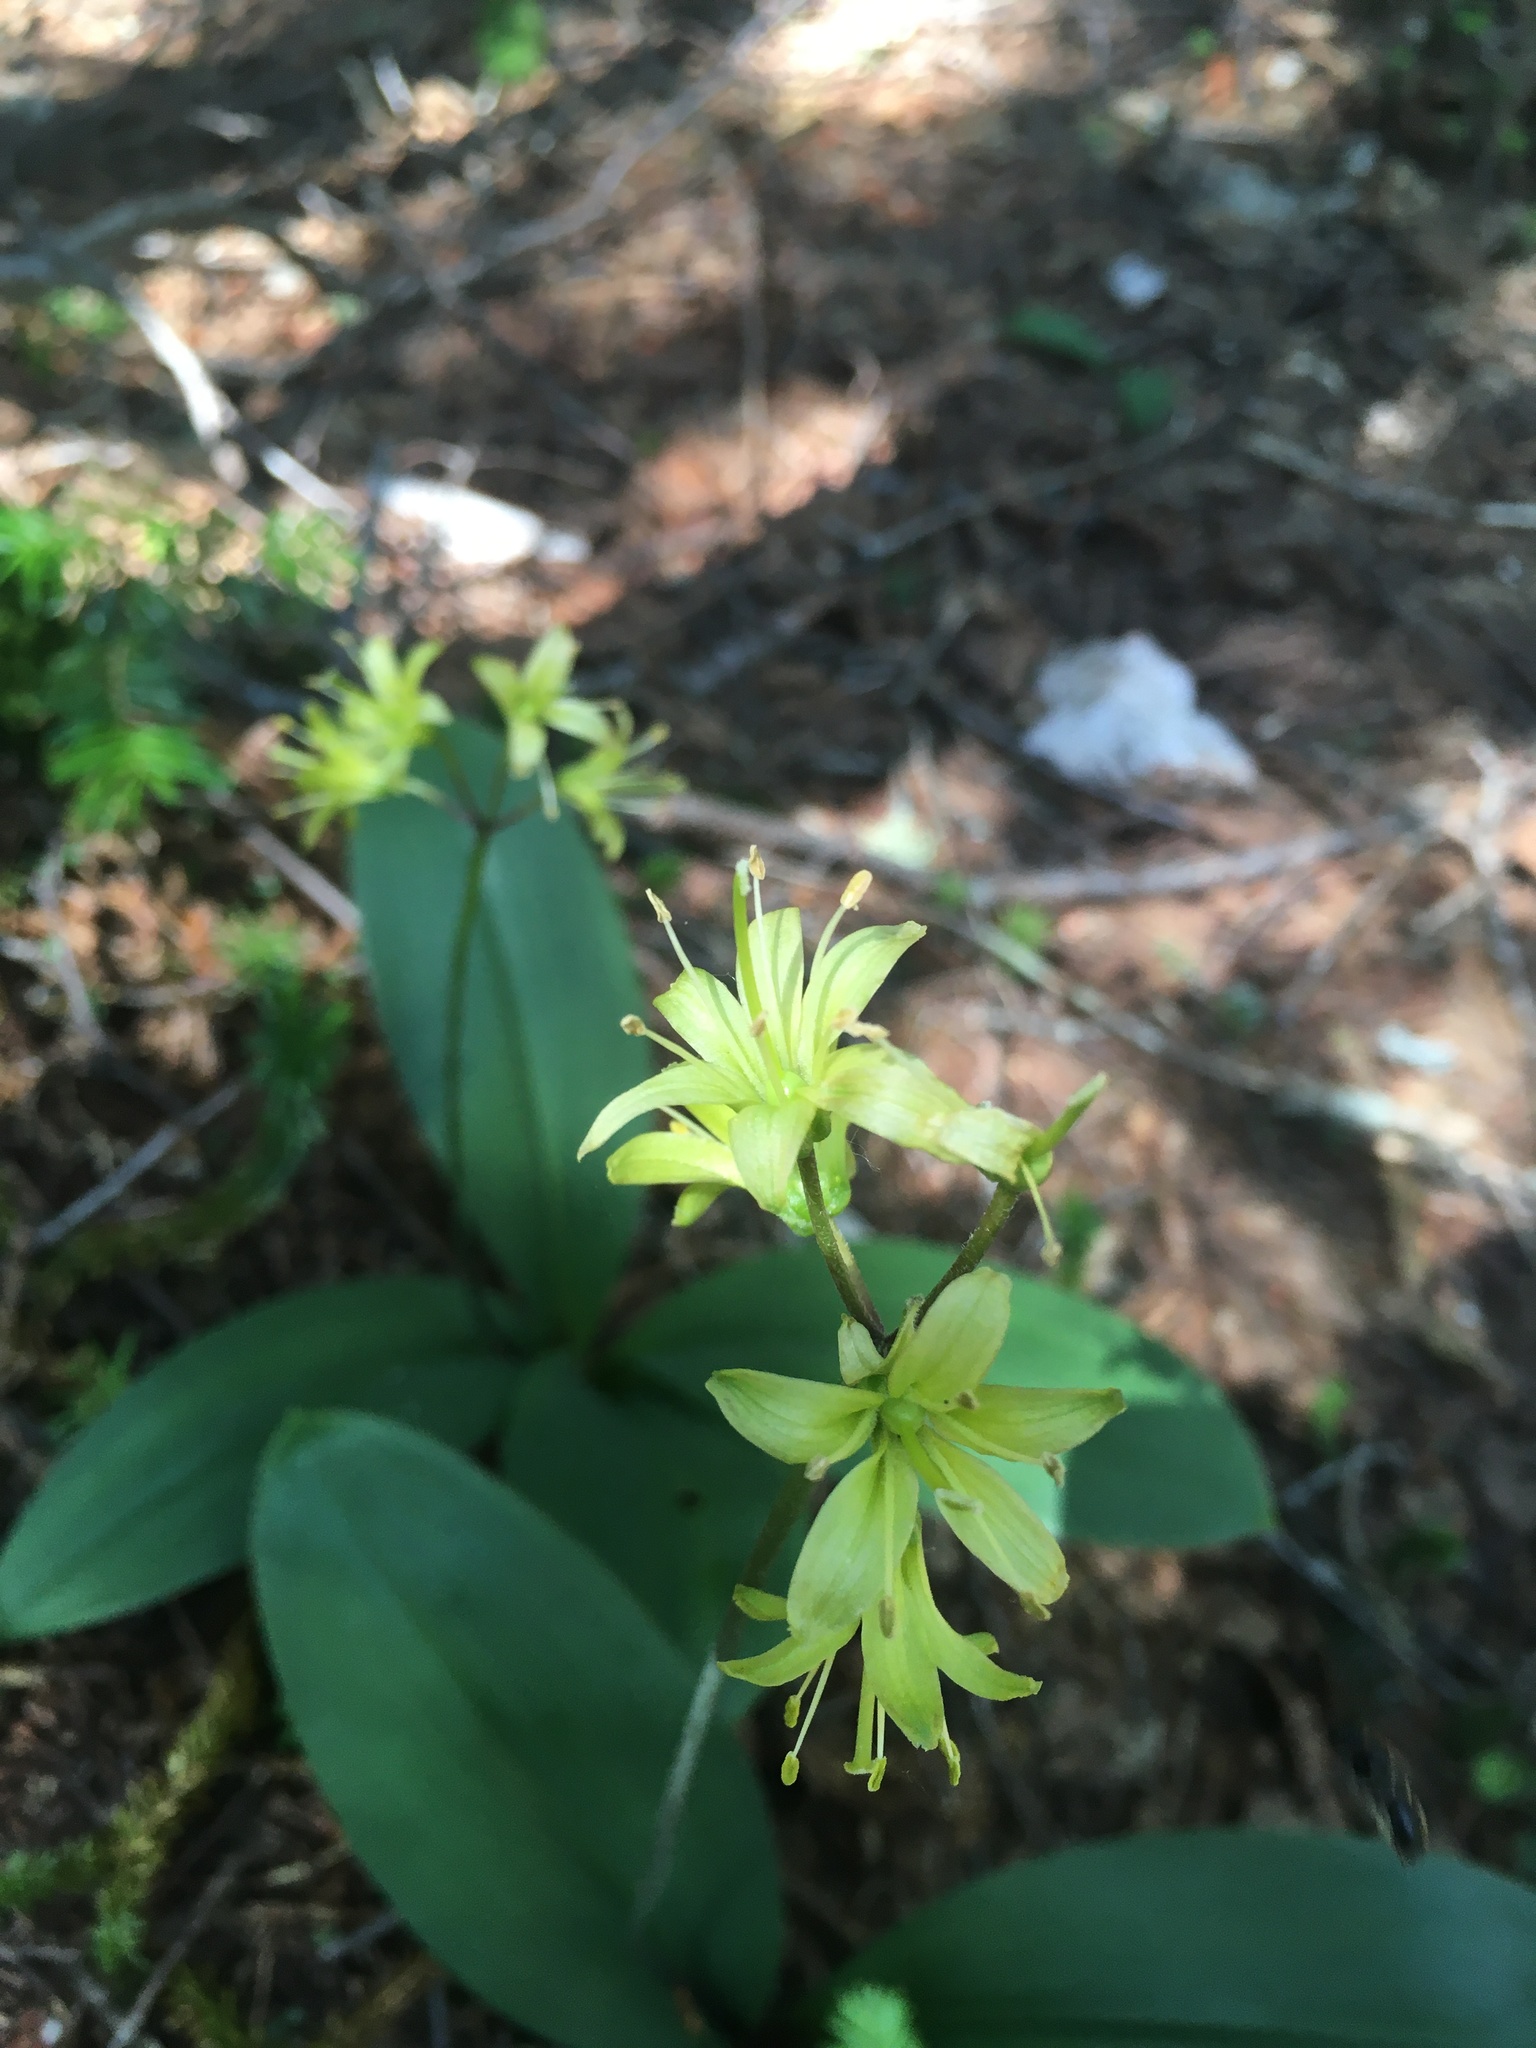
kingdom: Plantae
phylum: Tracheophyta
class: Liliopsida
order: Liliales
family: Liliaceae
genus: Clintonia
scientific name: Clintonia borealis
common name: Yellow clintonia
